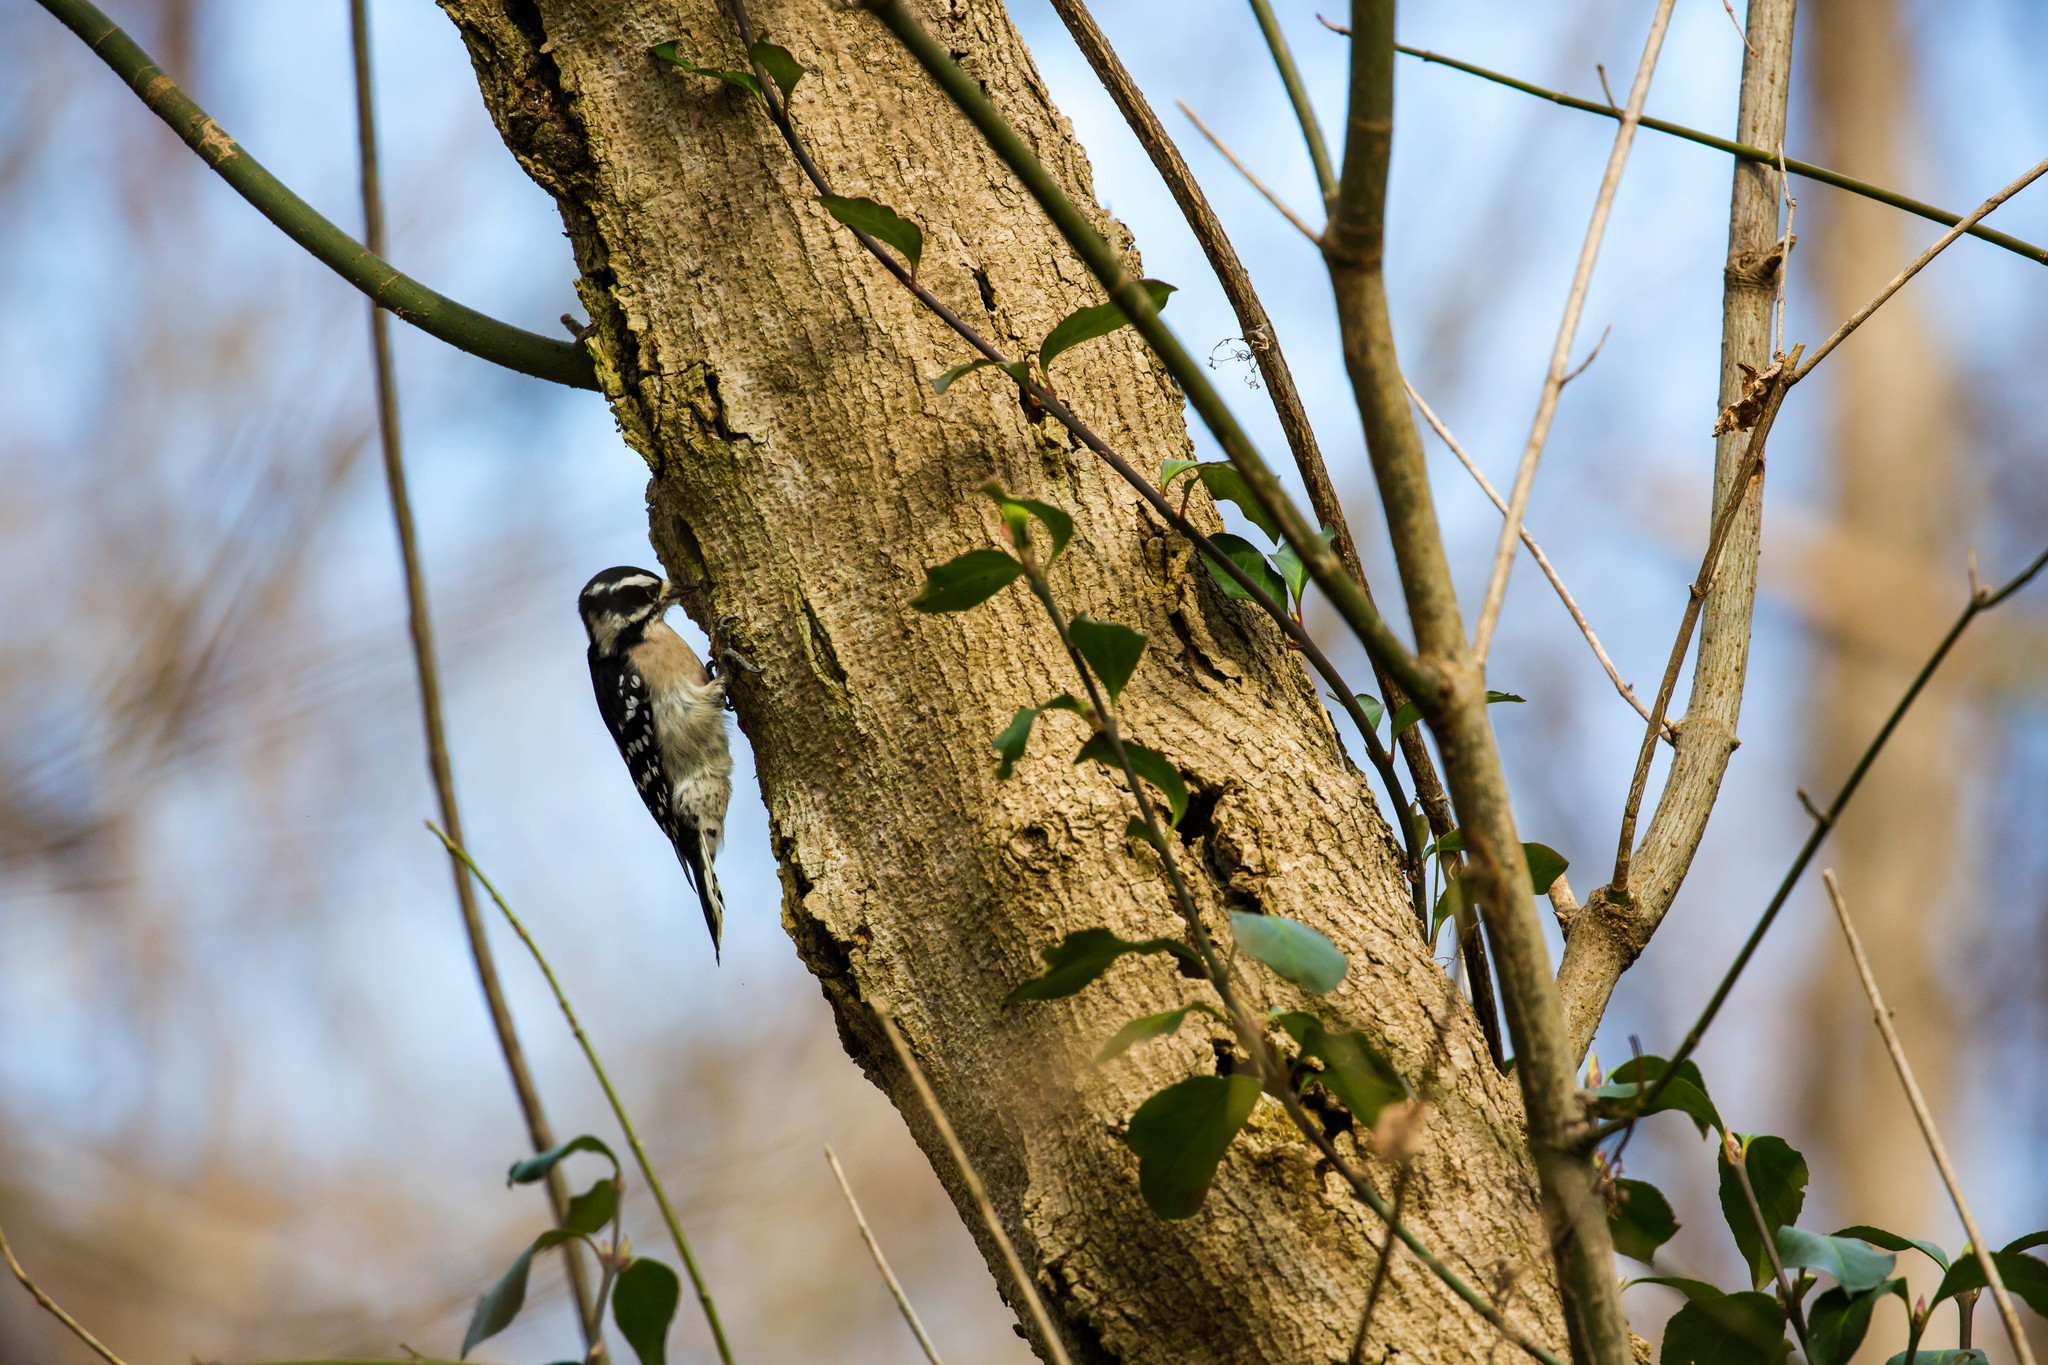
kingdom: Animalia
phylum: Chordata
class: Aves
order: Piciformes
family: Picidae
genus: Dryobates
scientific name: Dryobates pubescens
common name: Downy woodpecker
